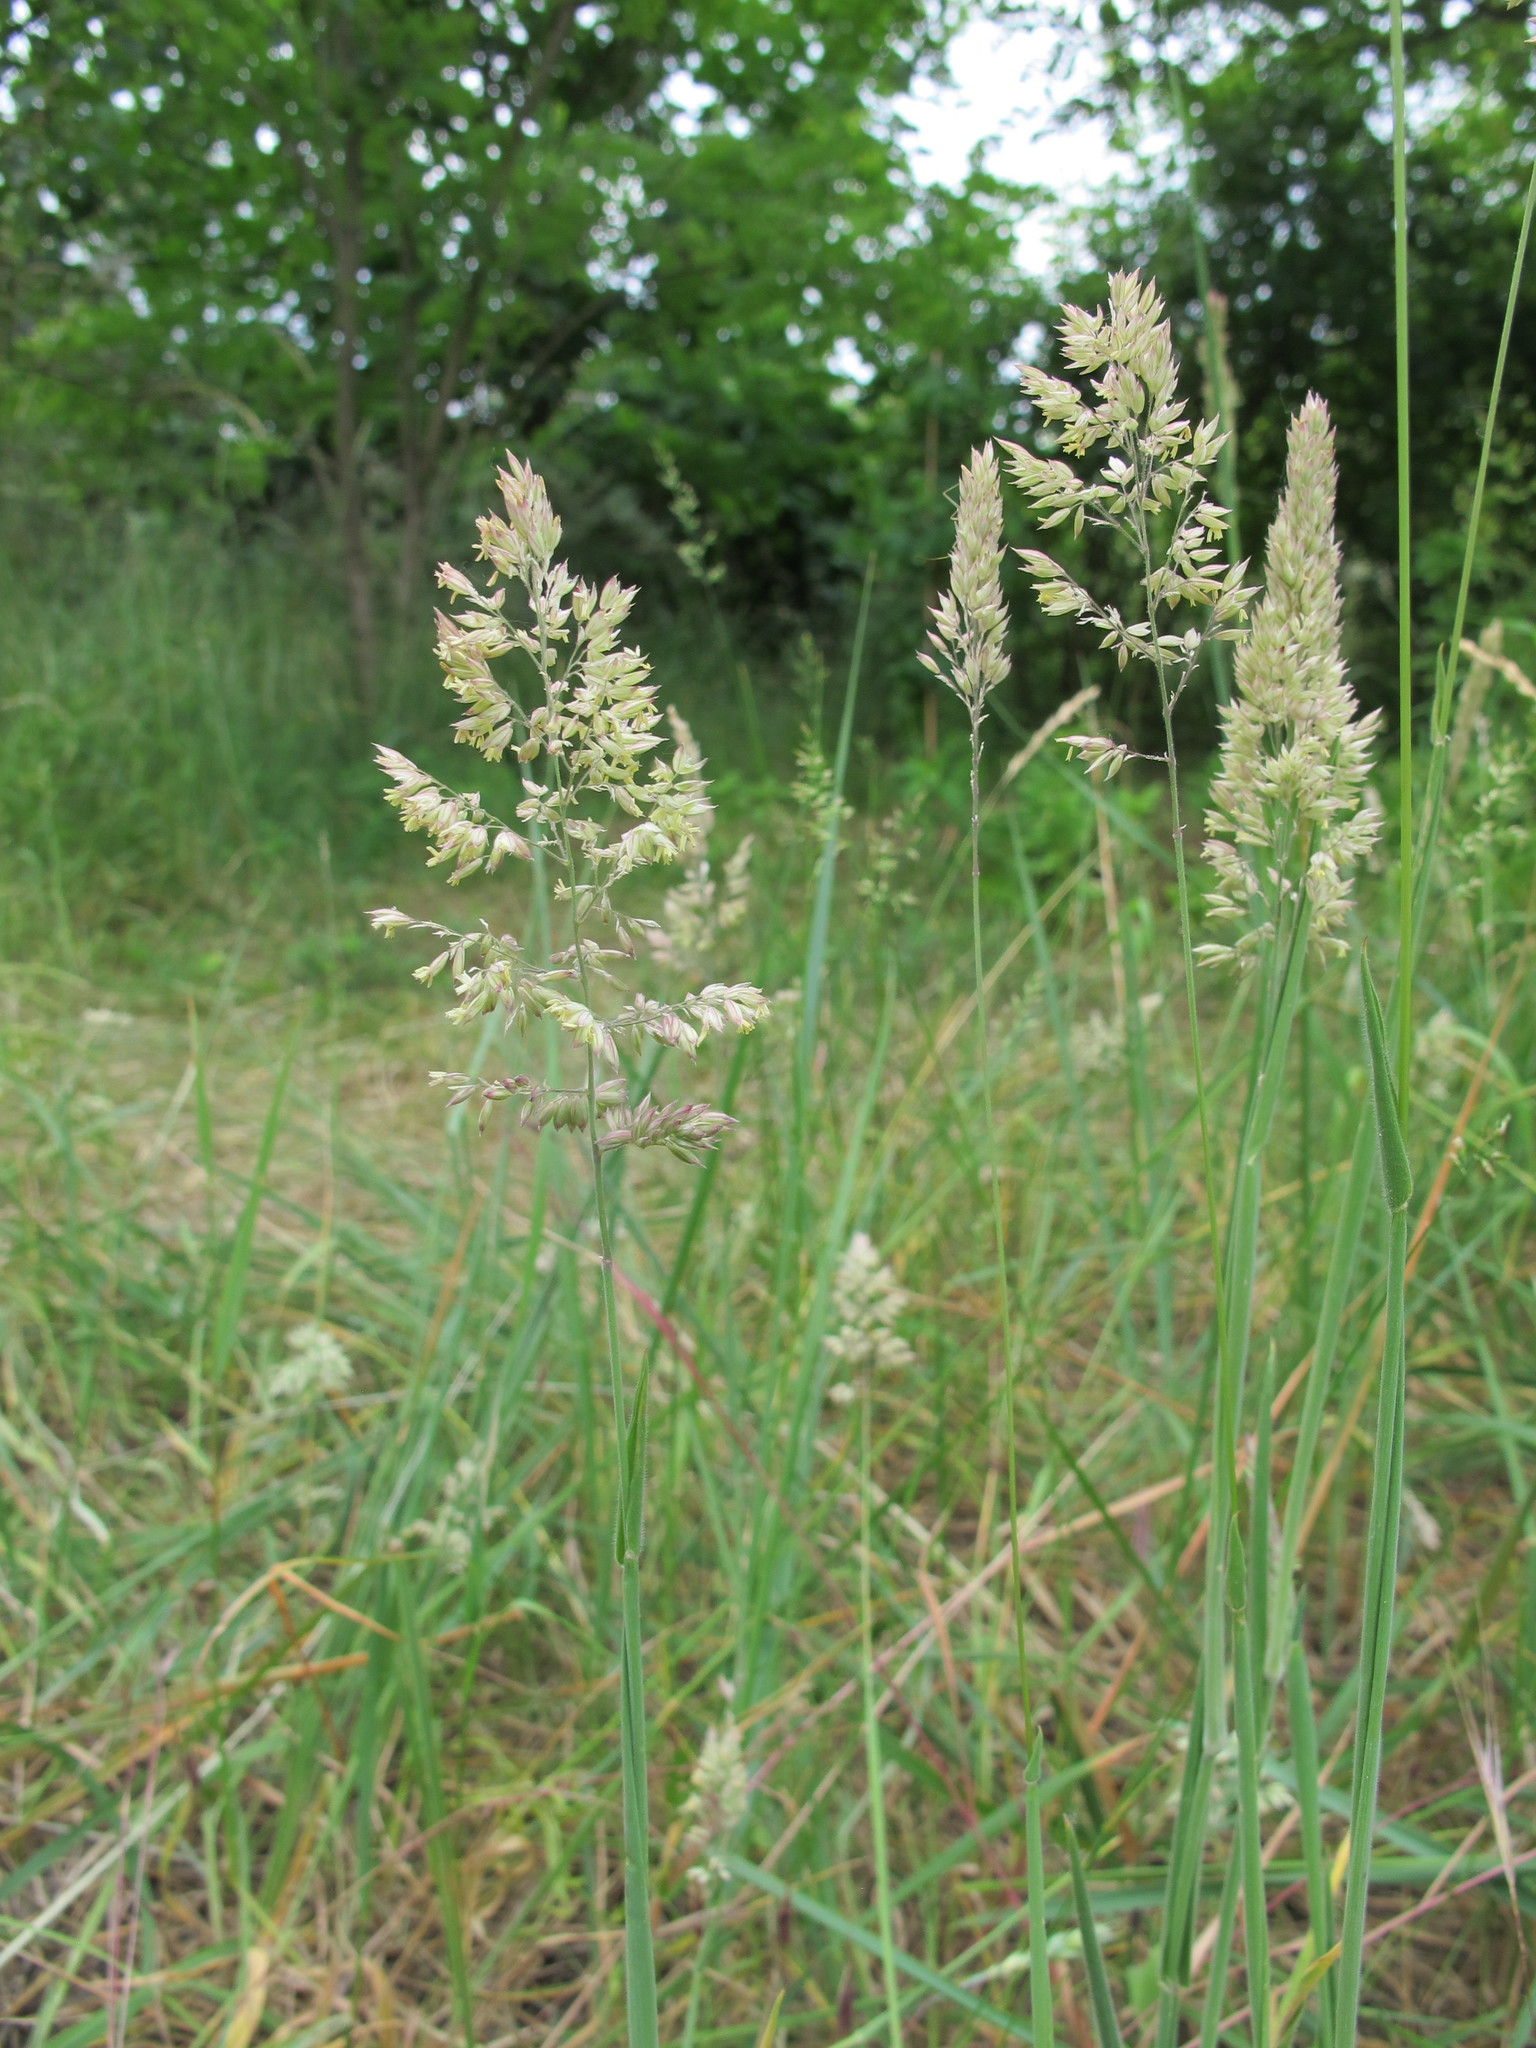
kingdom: Plantae
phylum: Tracheophyta
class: Liliopsida
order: Poales
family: Poaceae
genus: Holcus
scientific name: Holcus lanatus
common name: Yorkshire-fog
